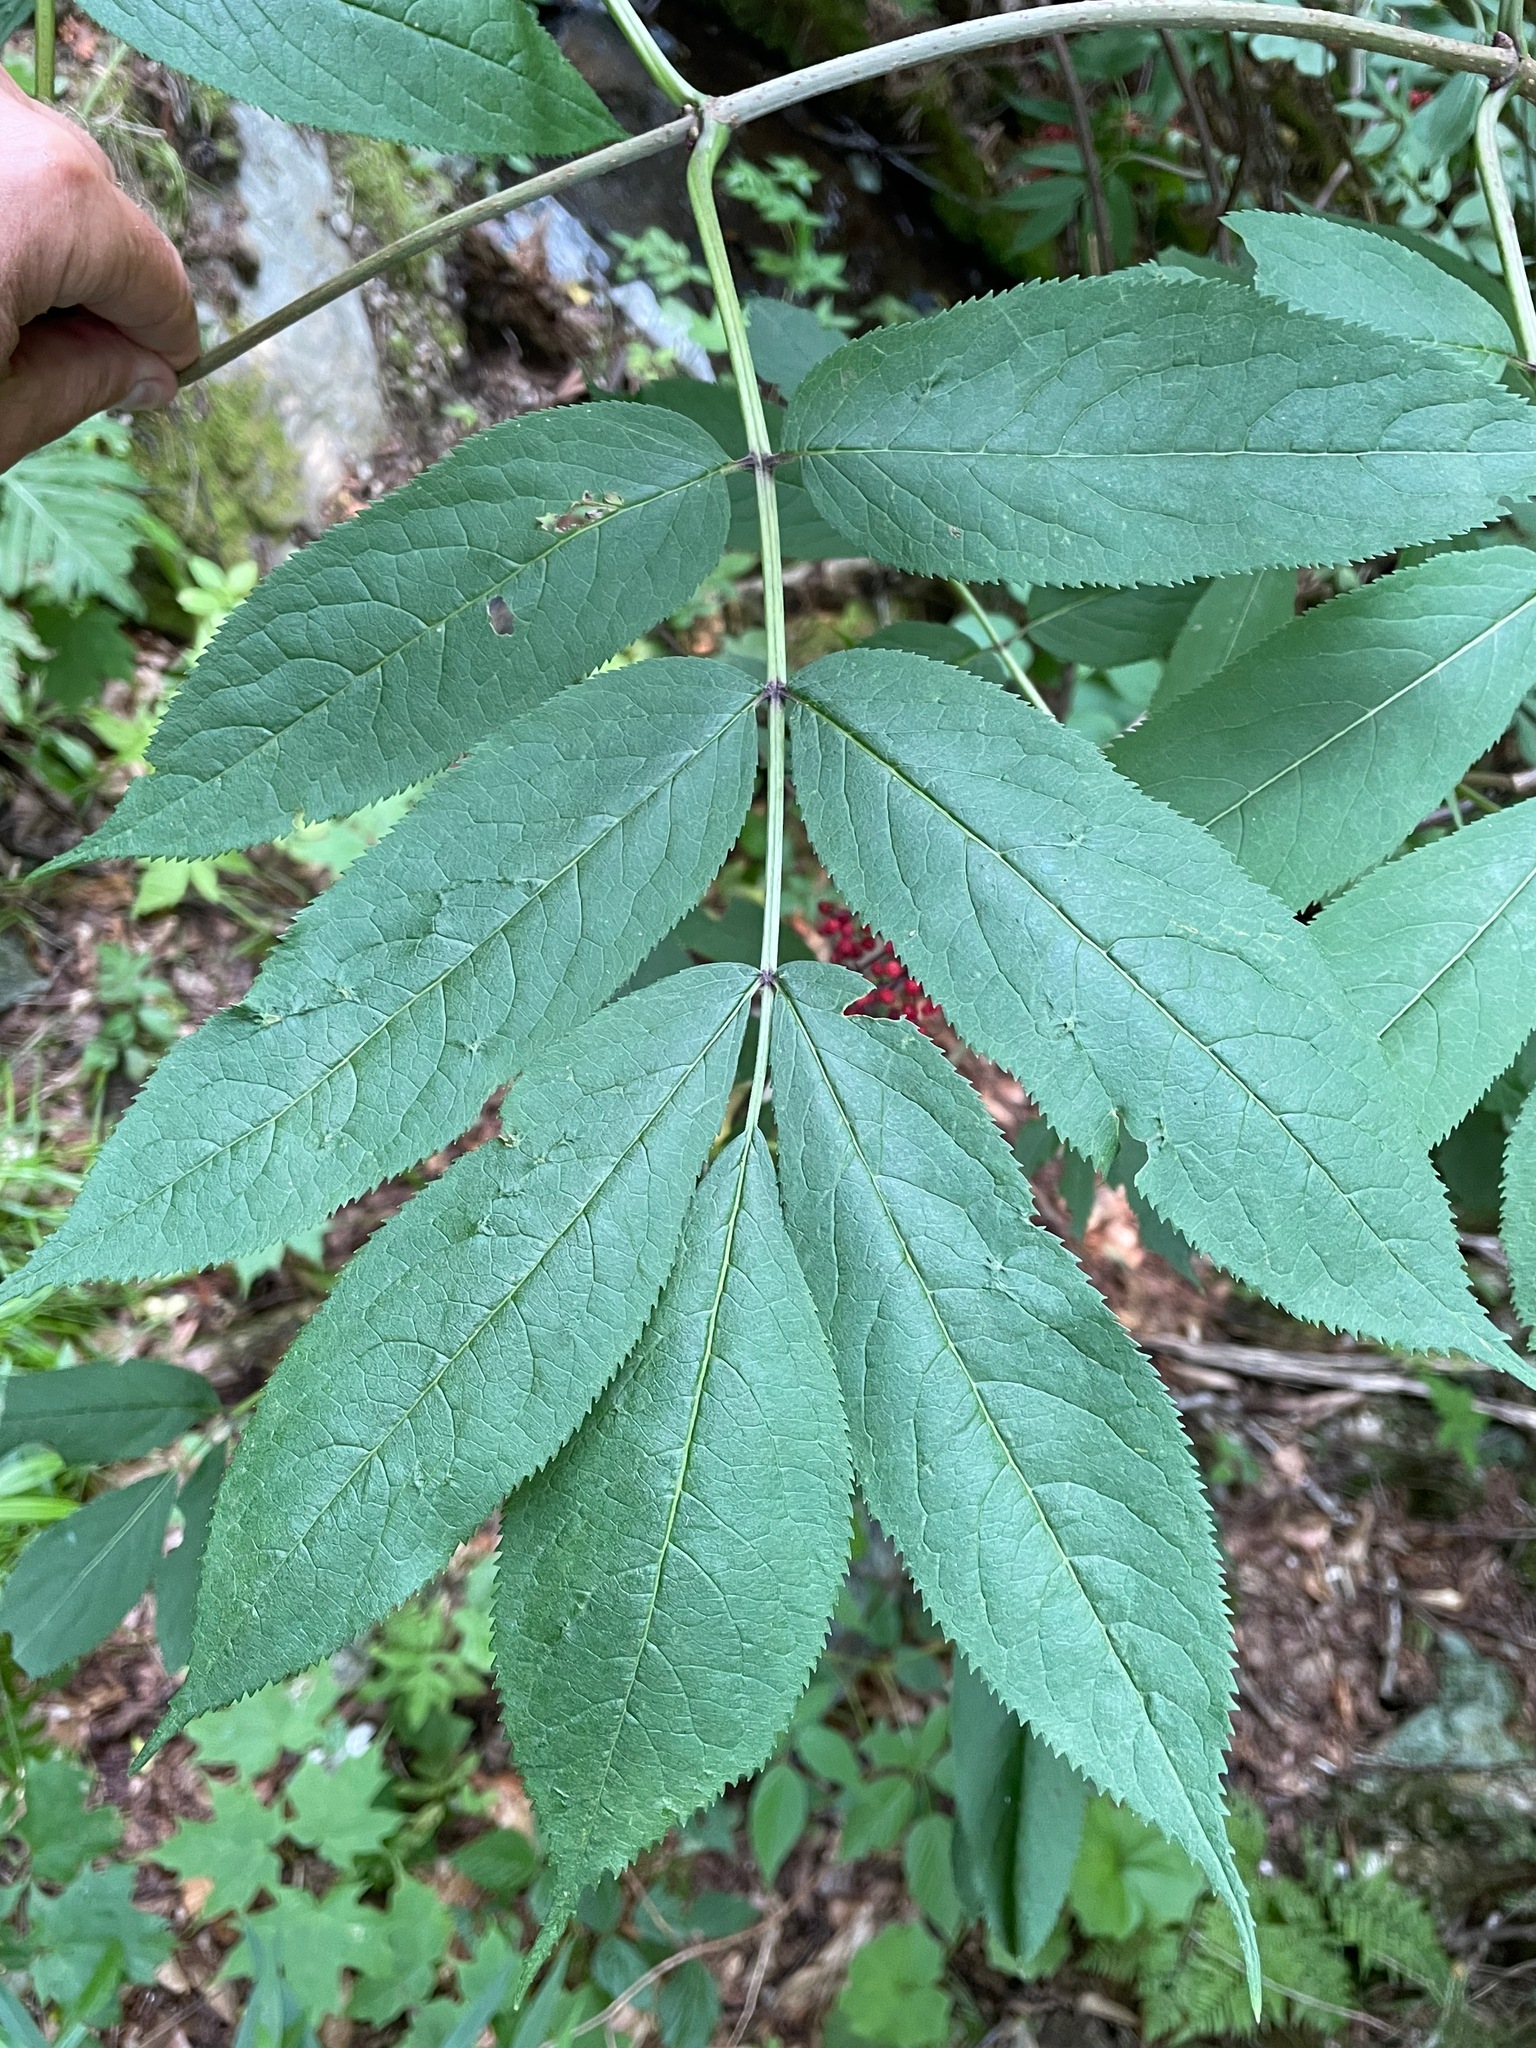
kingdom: Plantae
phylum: Tracheophyta
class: Magnoliopsida
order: Dipsacales
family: Viburnaceae
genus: Sambucus
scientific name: Sambucus racemosa
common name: Red-berried elder
